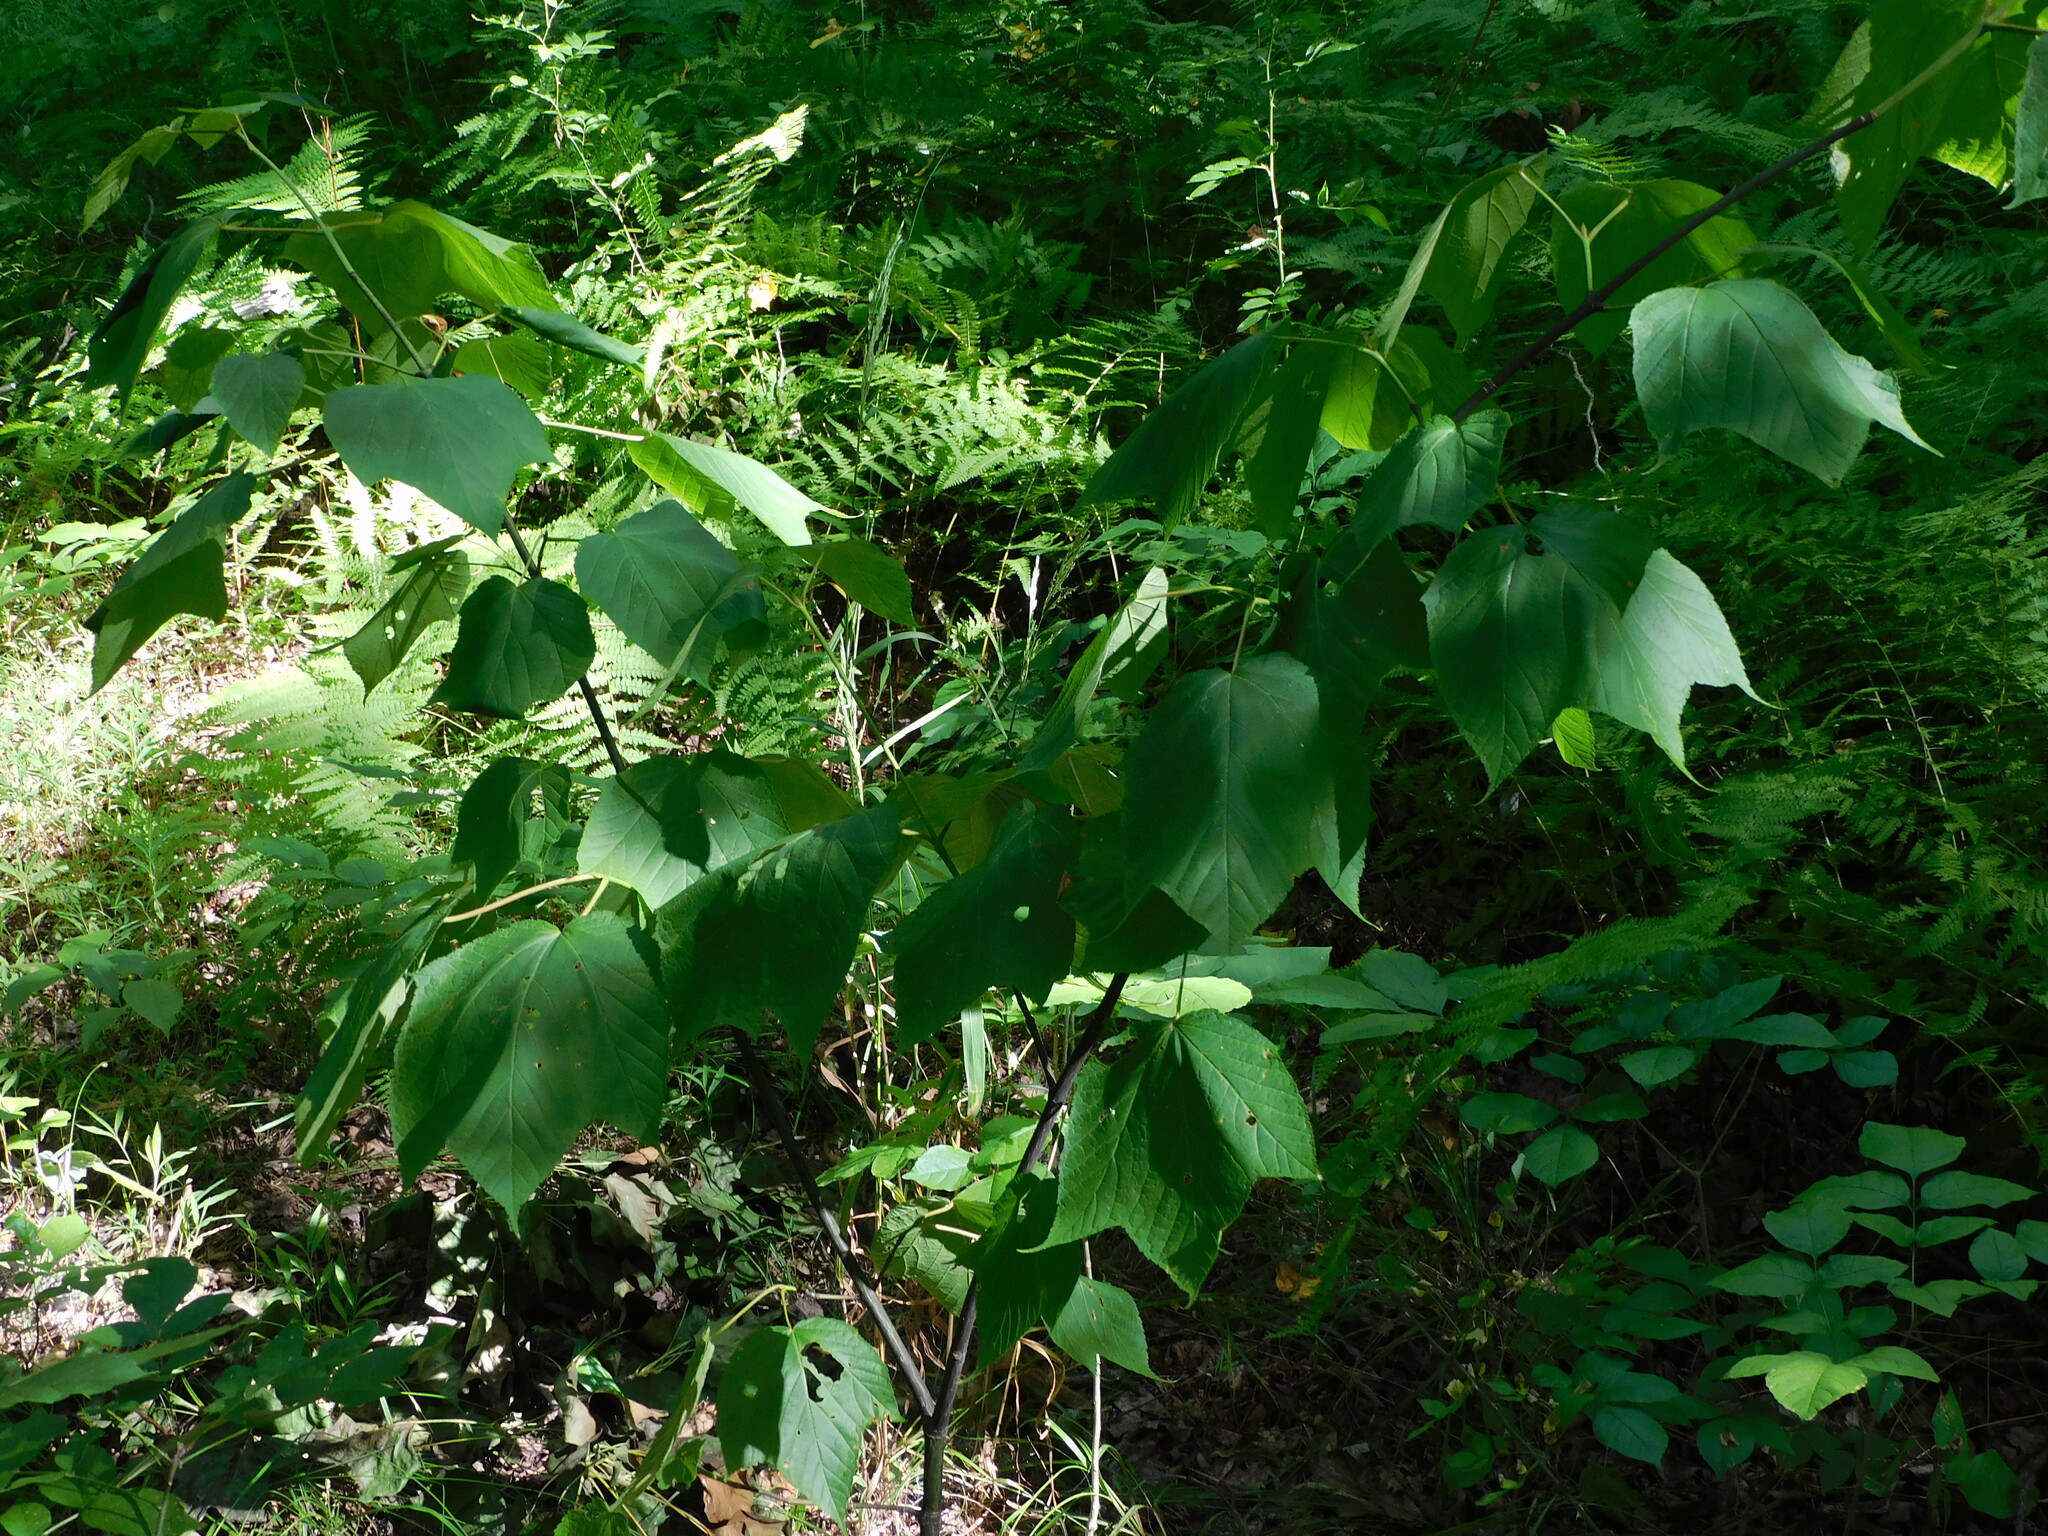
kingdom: Plantae
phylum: Tracheophyta
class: Magnoliopsida
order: Sapindales
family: Sapindaceae
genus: Acer
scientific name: Acer pensylvanicum
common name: Moosewood
